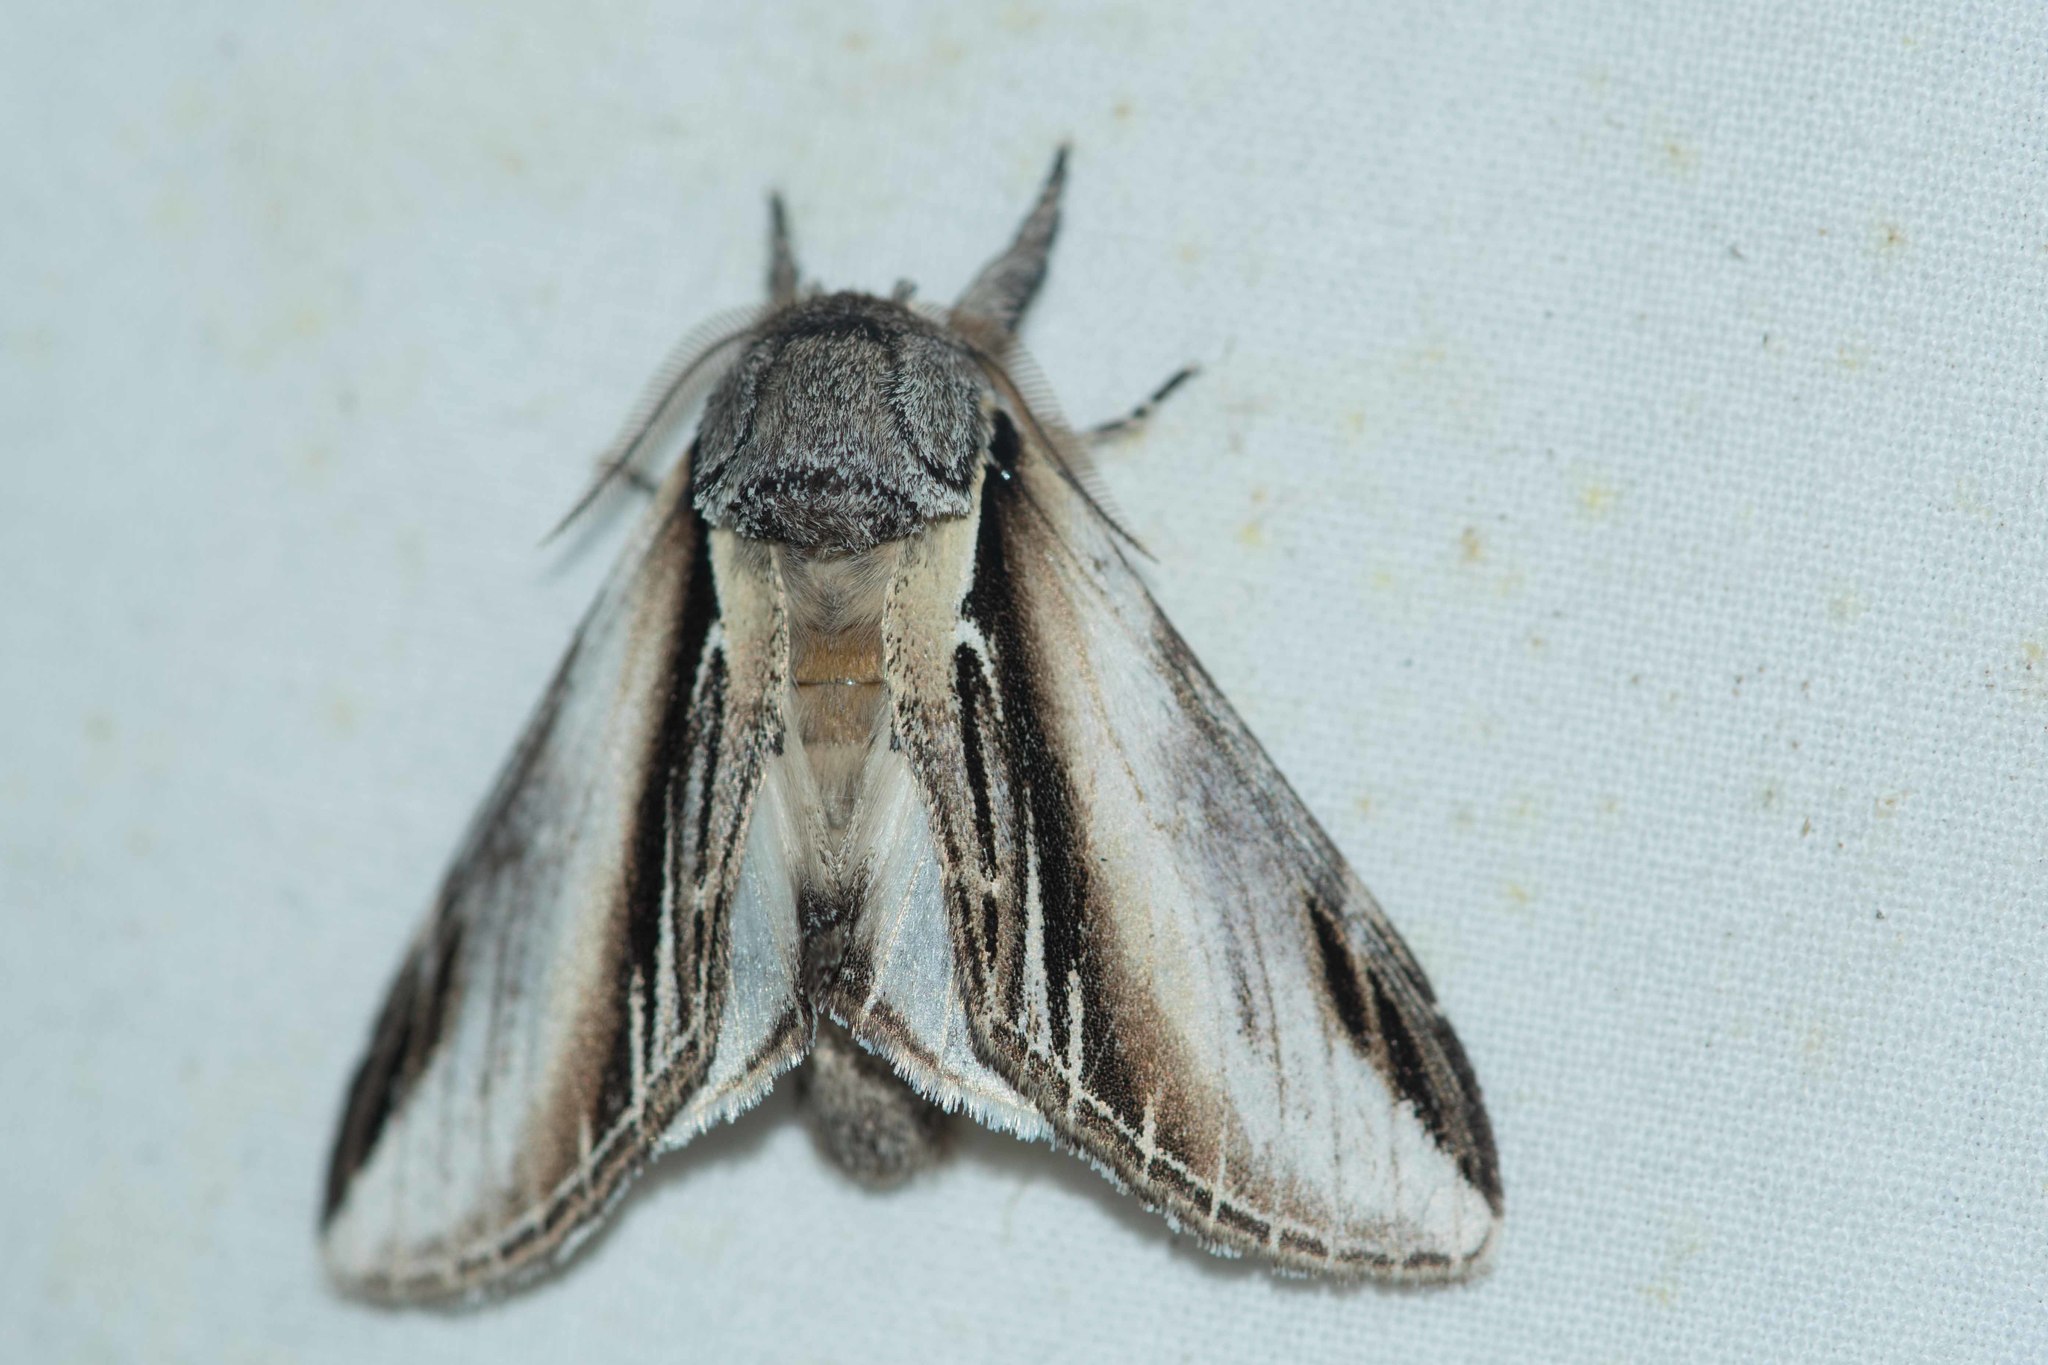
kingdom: Animalia
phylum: Arthropoda
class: Insecta
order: Lepidoptera
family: Notodontidae
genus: Pheosia
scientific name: Pheosia tremula
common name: Swallow prominent
